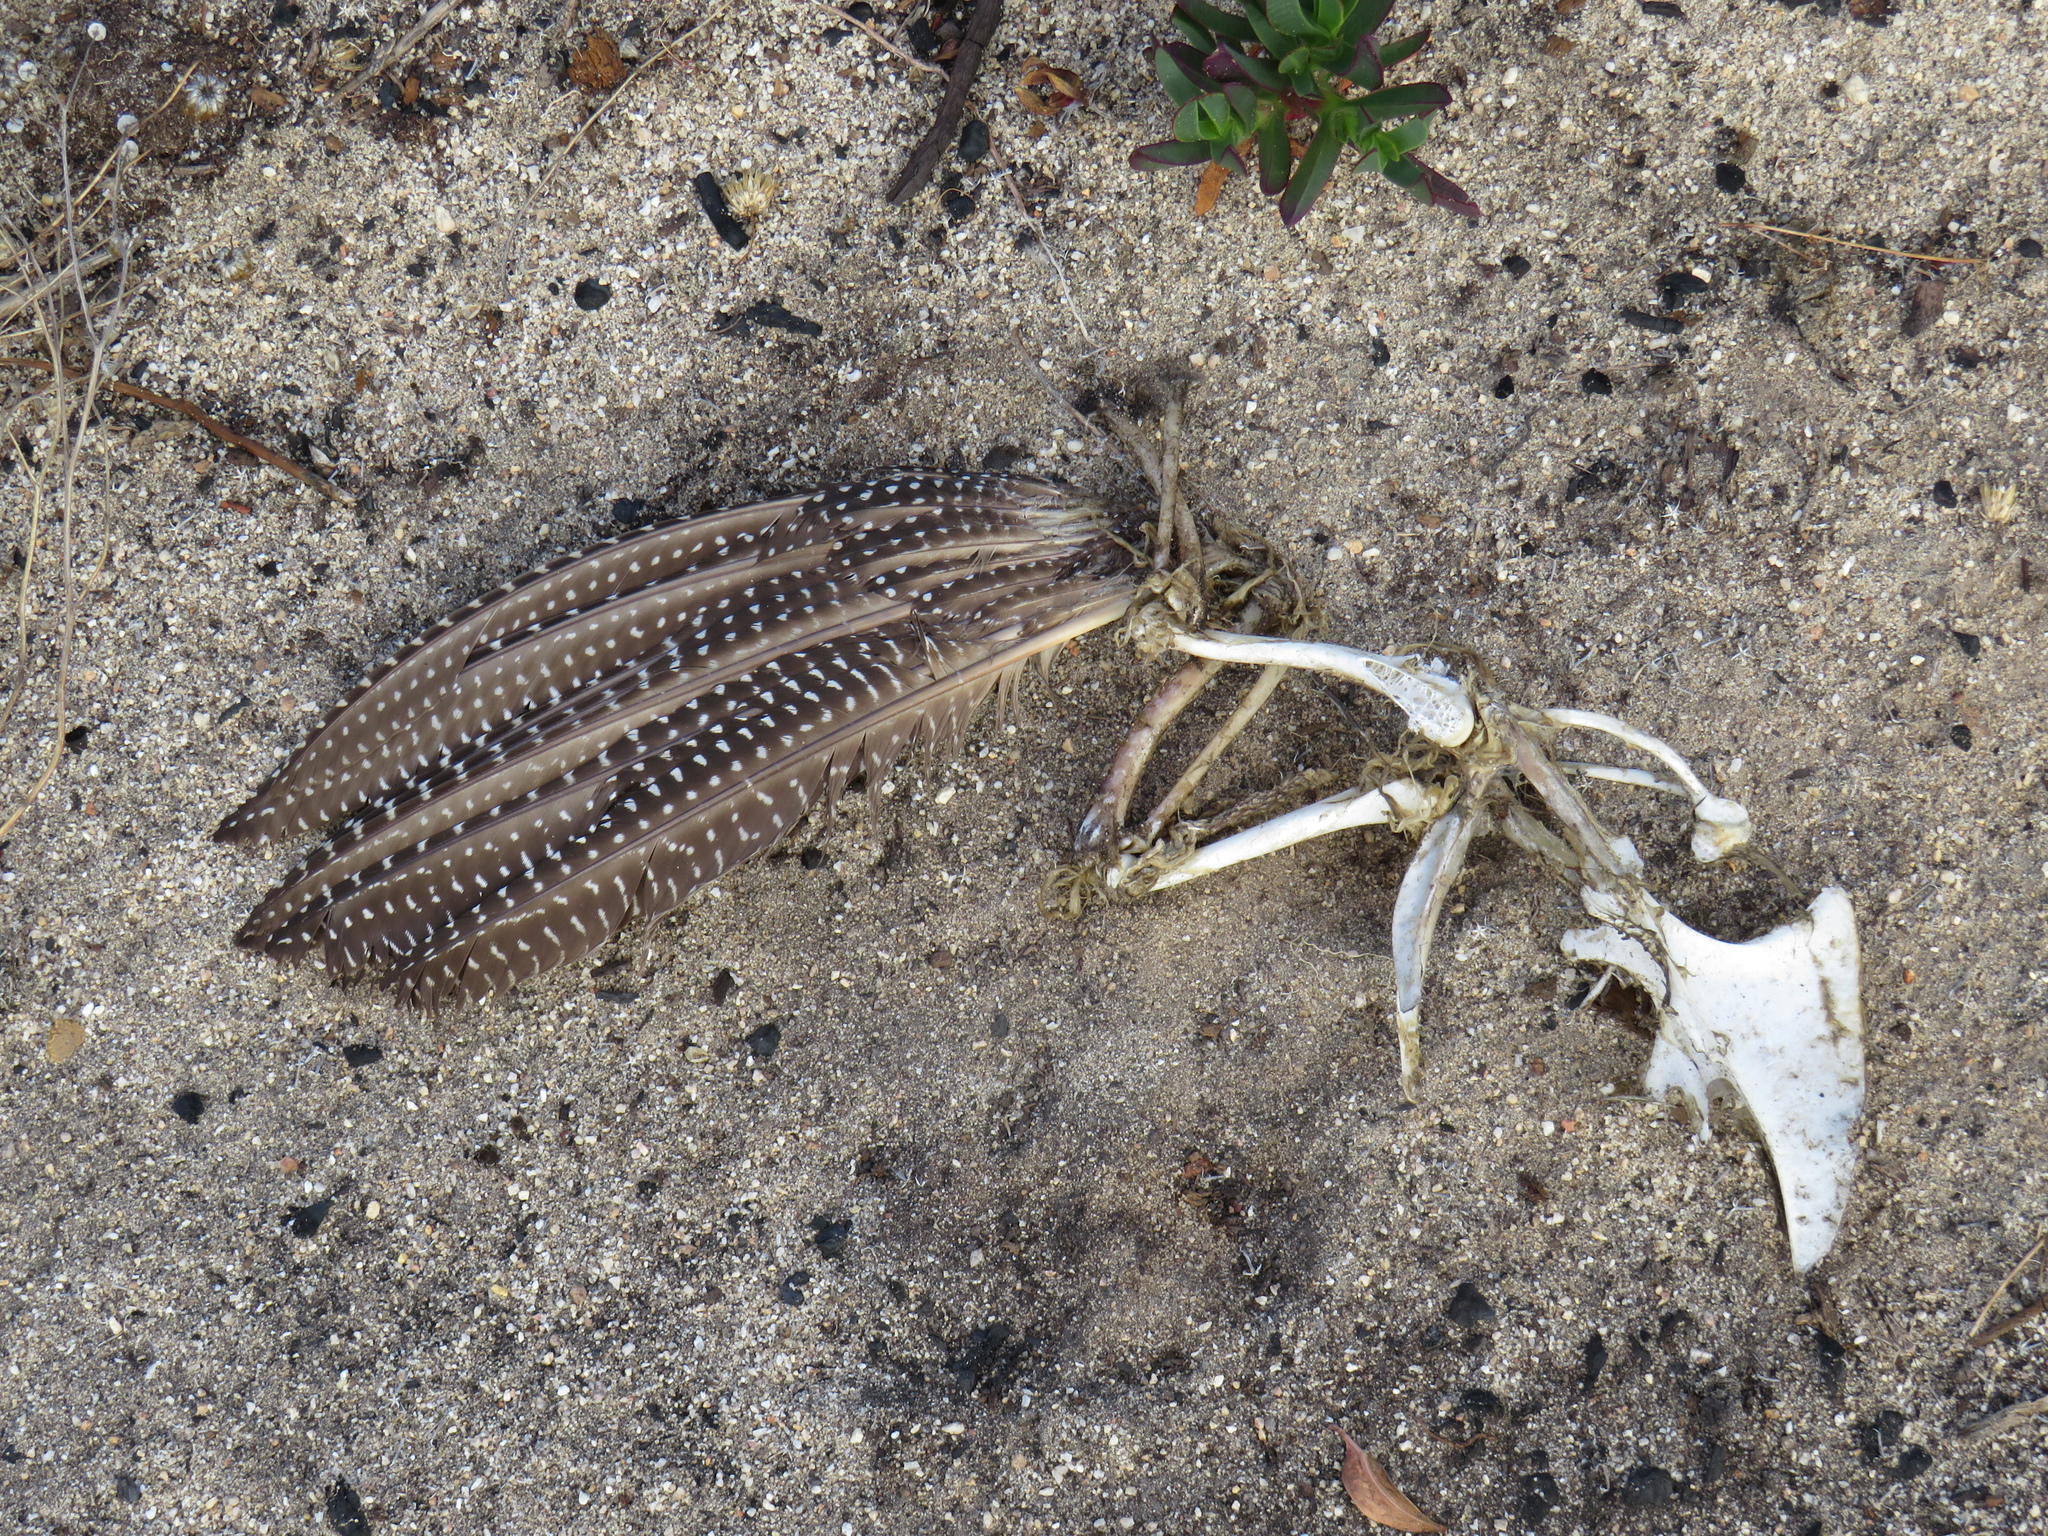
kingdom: Animalia
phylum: Chordata
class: Aves
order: Galliformes
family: Numididae
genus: Numida
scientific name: Numida meleagris
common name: Helmeted guineafowl
